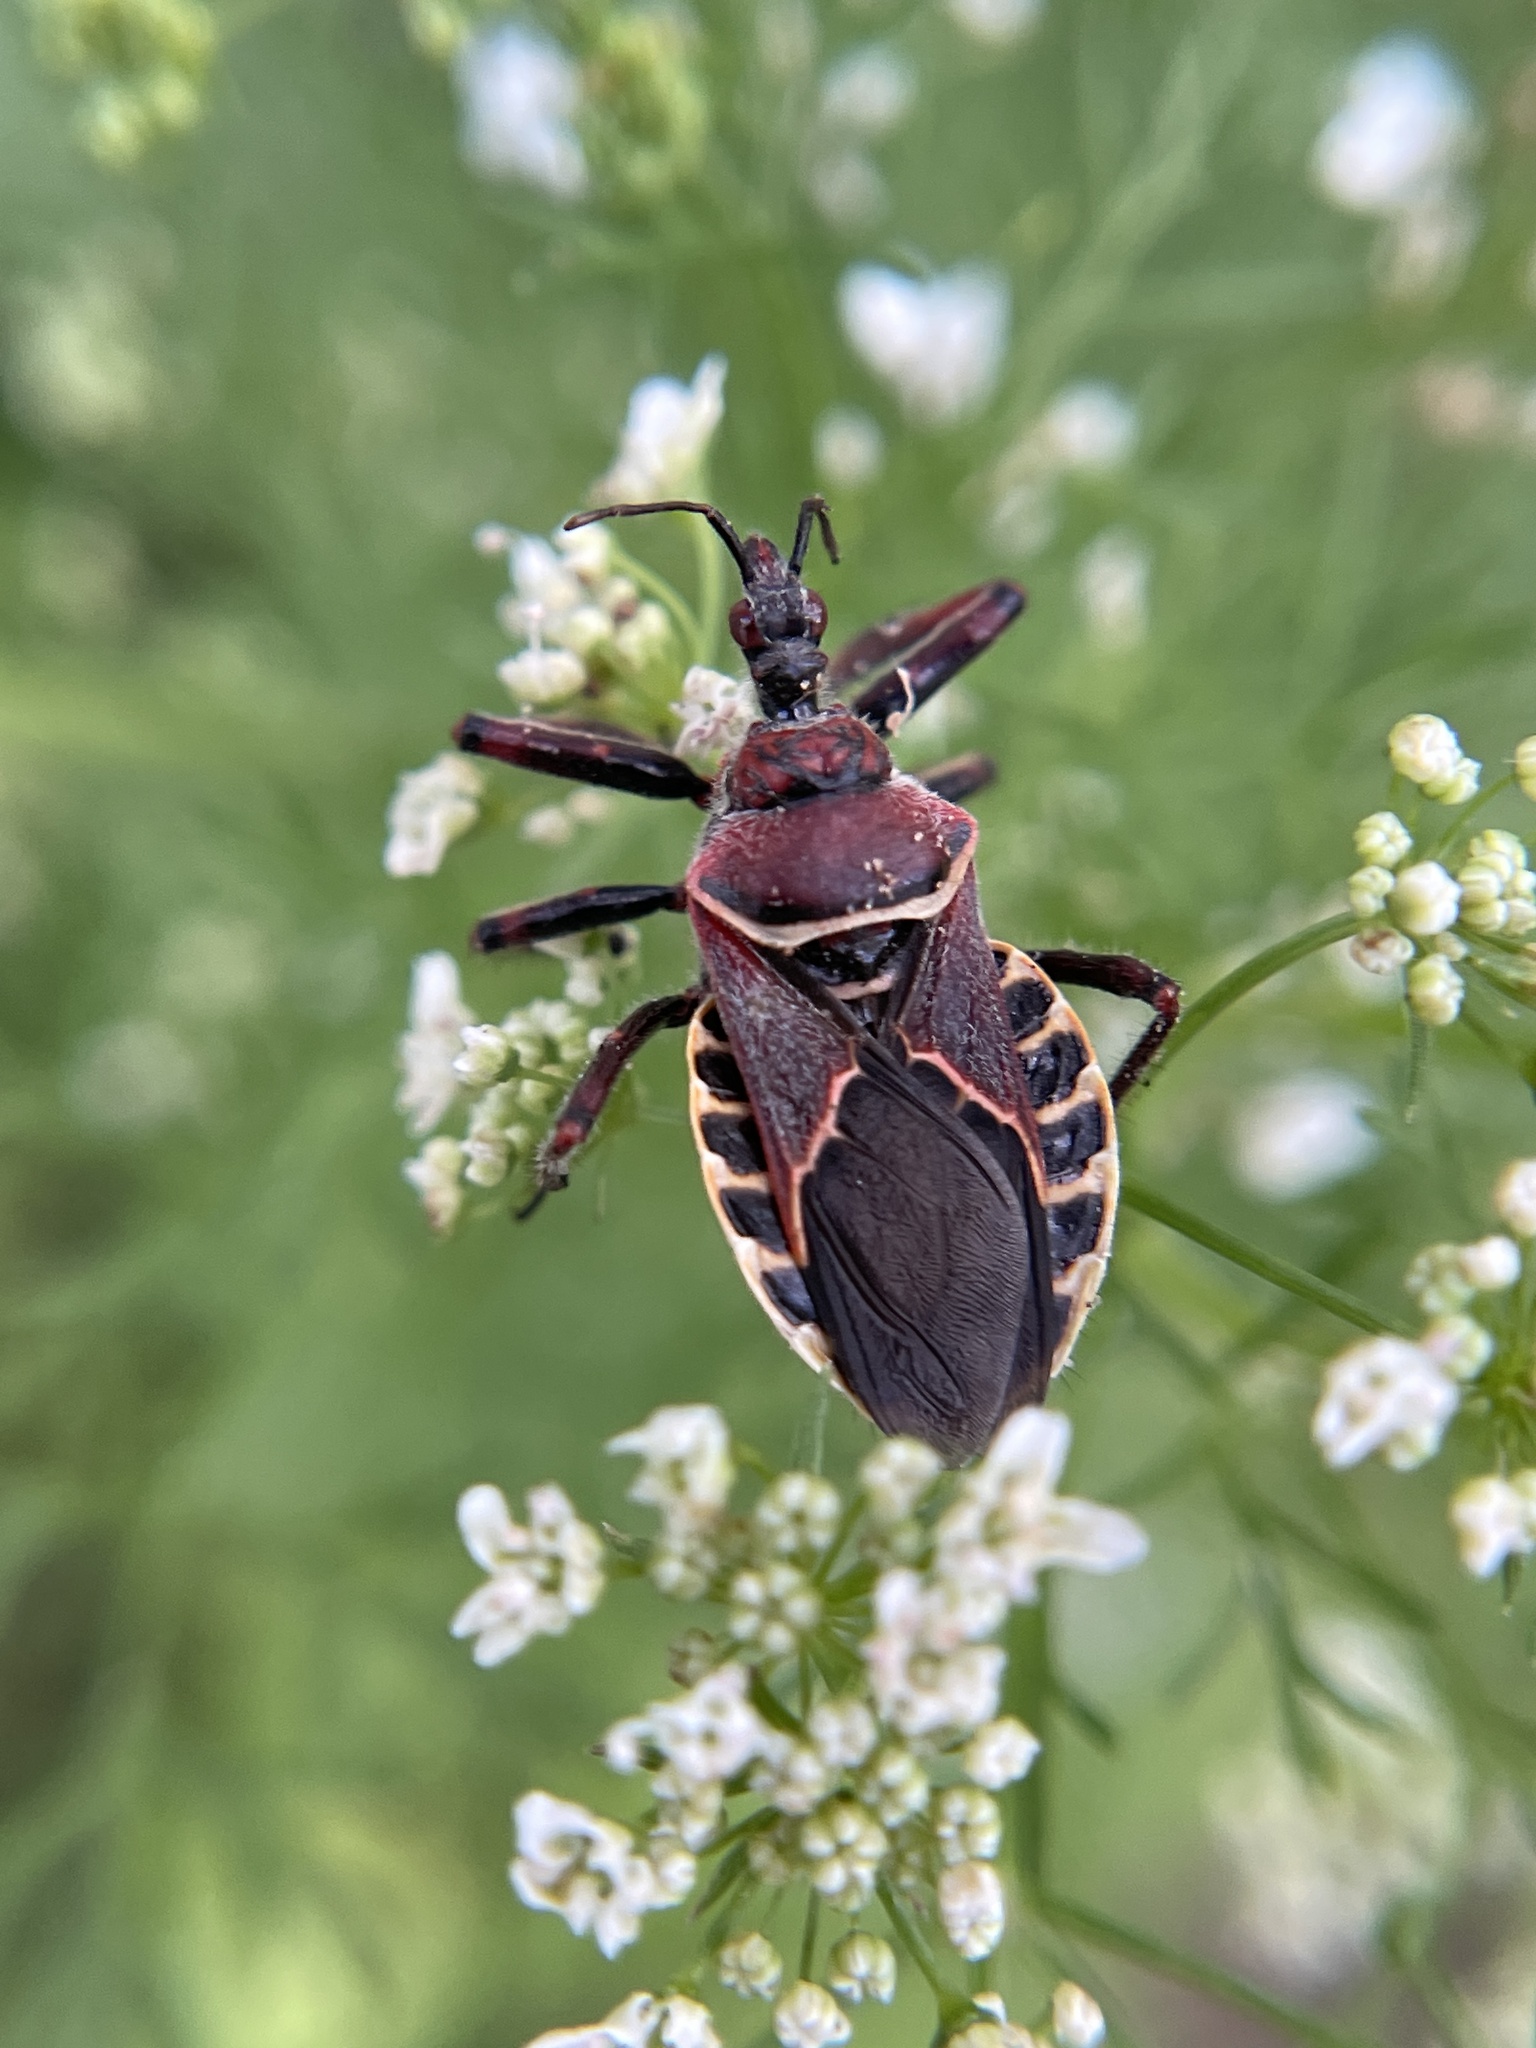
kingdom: Animalia
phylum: Arthropoda
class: Insecta
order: Hemiptera
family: Reduviidae
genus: Apiomerus
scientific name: Apiomerus spissipes
